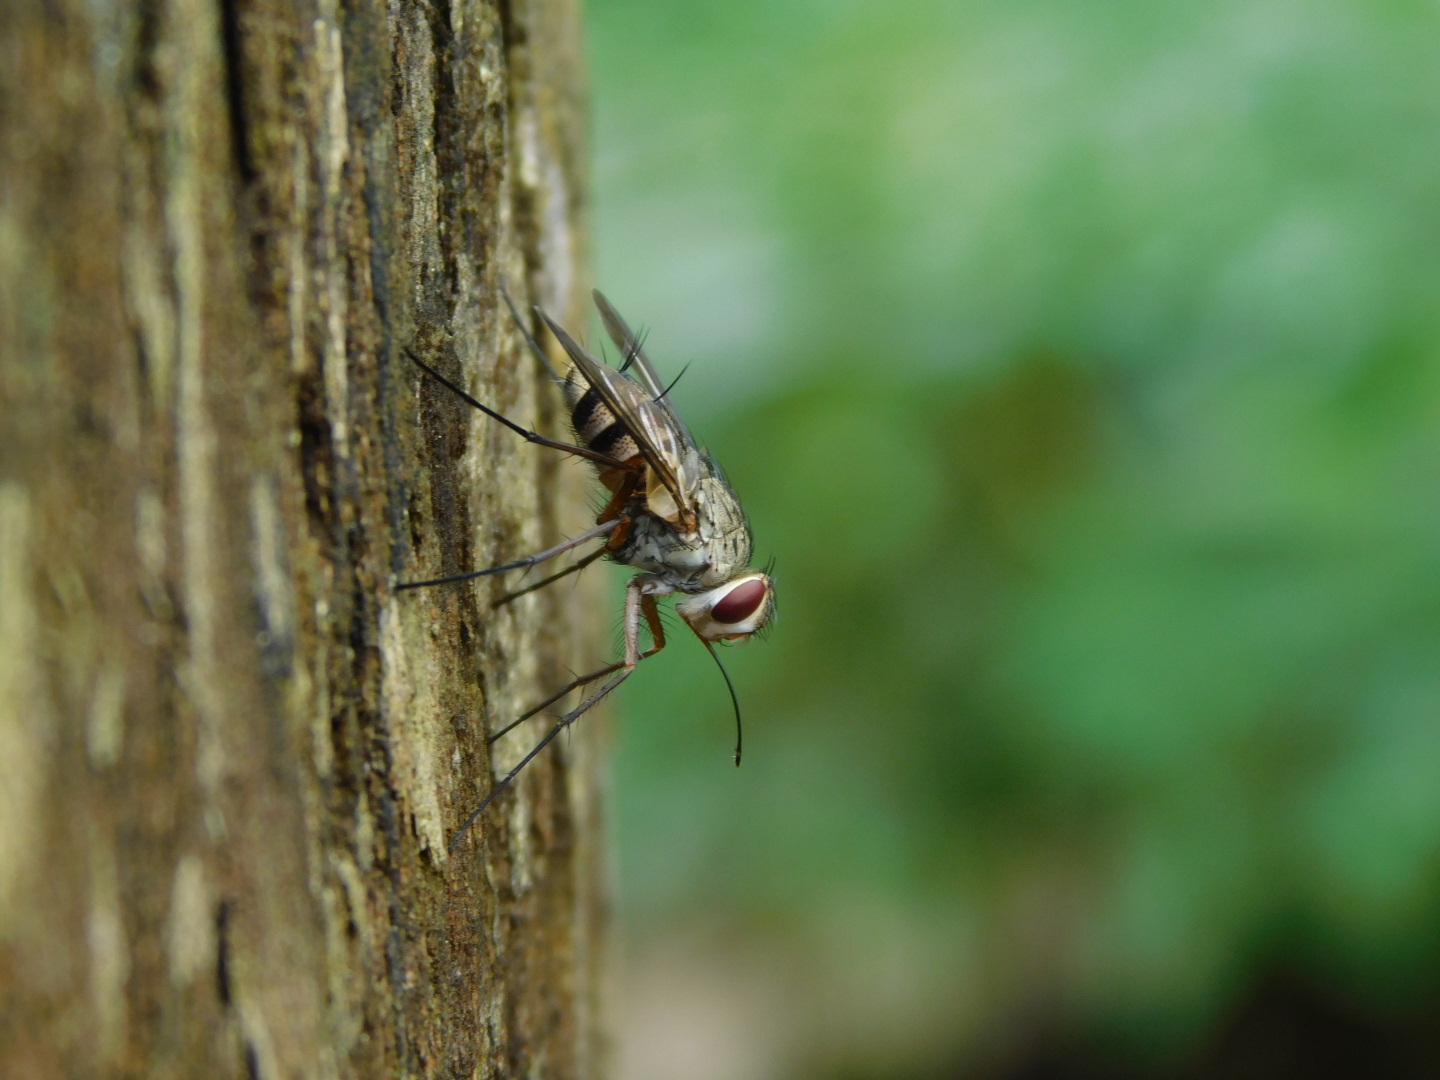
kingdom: Animalia
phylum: Arthropoda
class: Insecta
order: Diptera
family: Tachinidae
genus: Prosena
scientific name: Prosena siberita
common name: Parasitic fly
